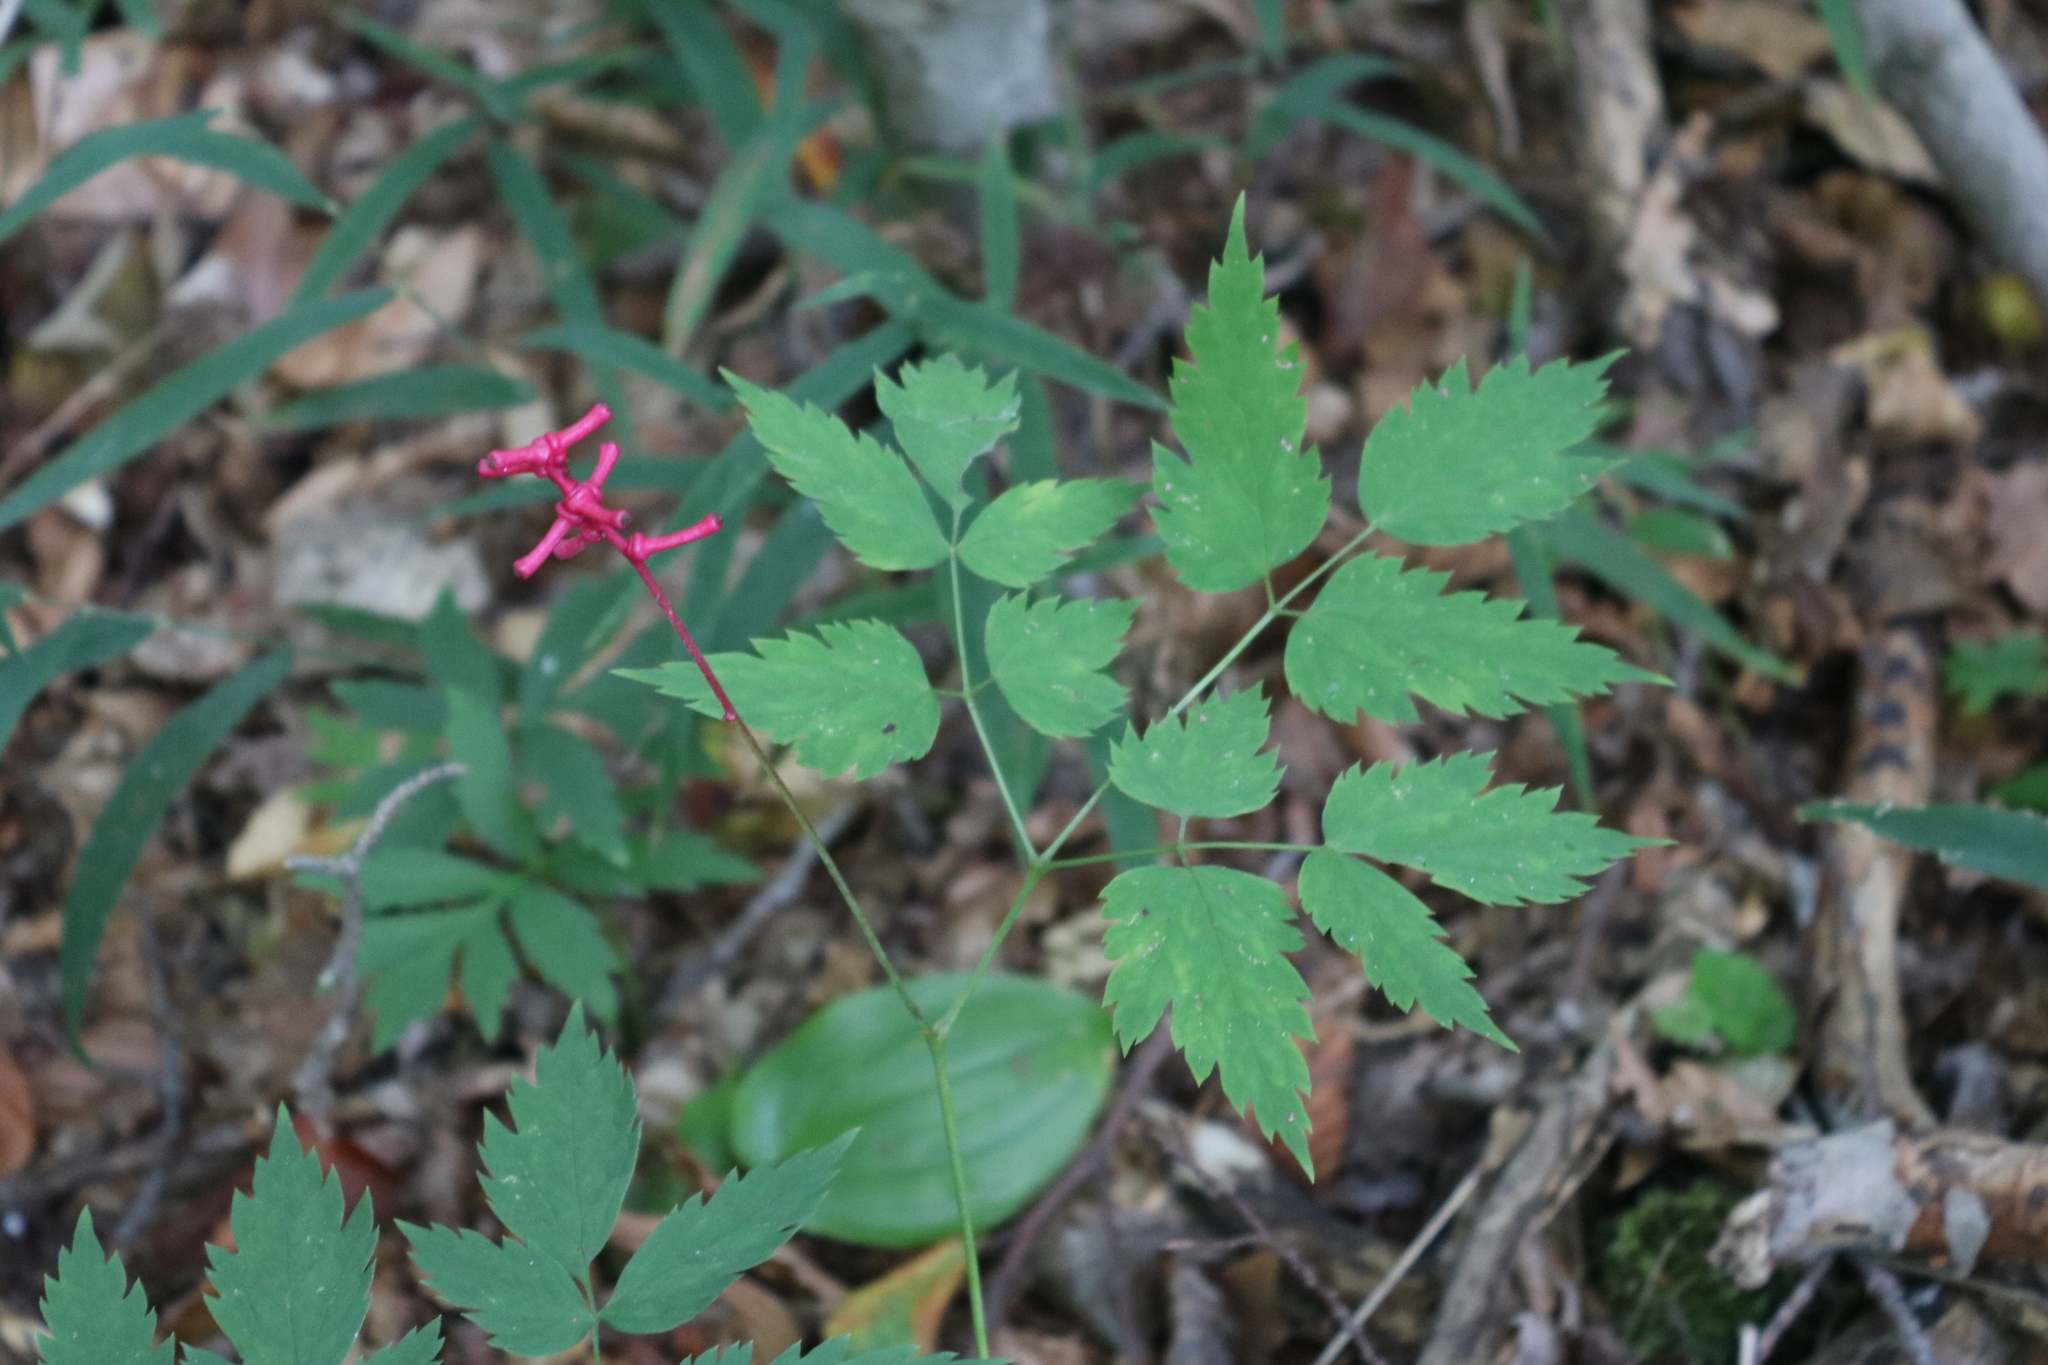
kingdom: Plantae
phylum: Tracheophyta
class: Magnoliopsida
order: Ranunculales
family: Ranunculaceae
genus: Actaea
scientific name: Actaea pachypoda
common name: Doll's-eyes
